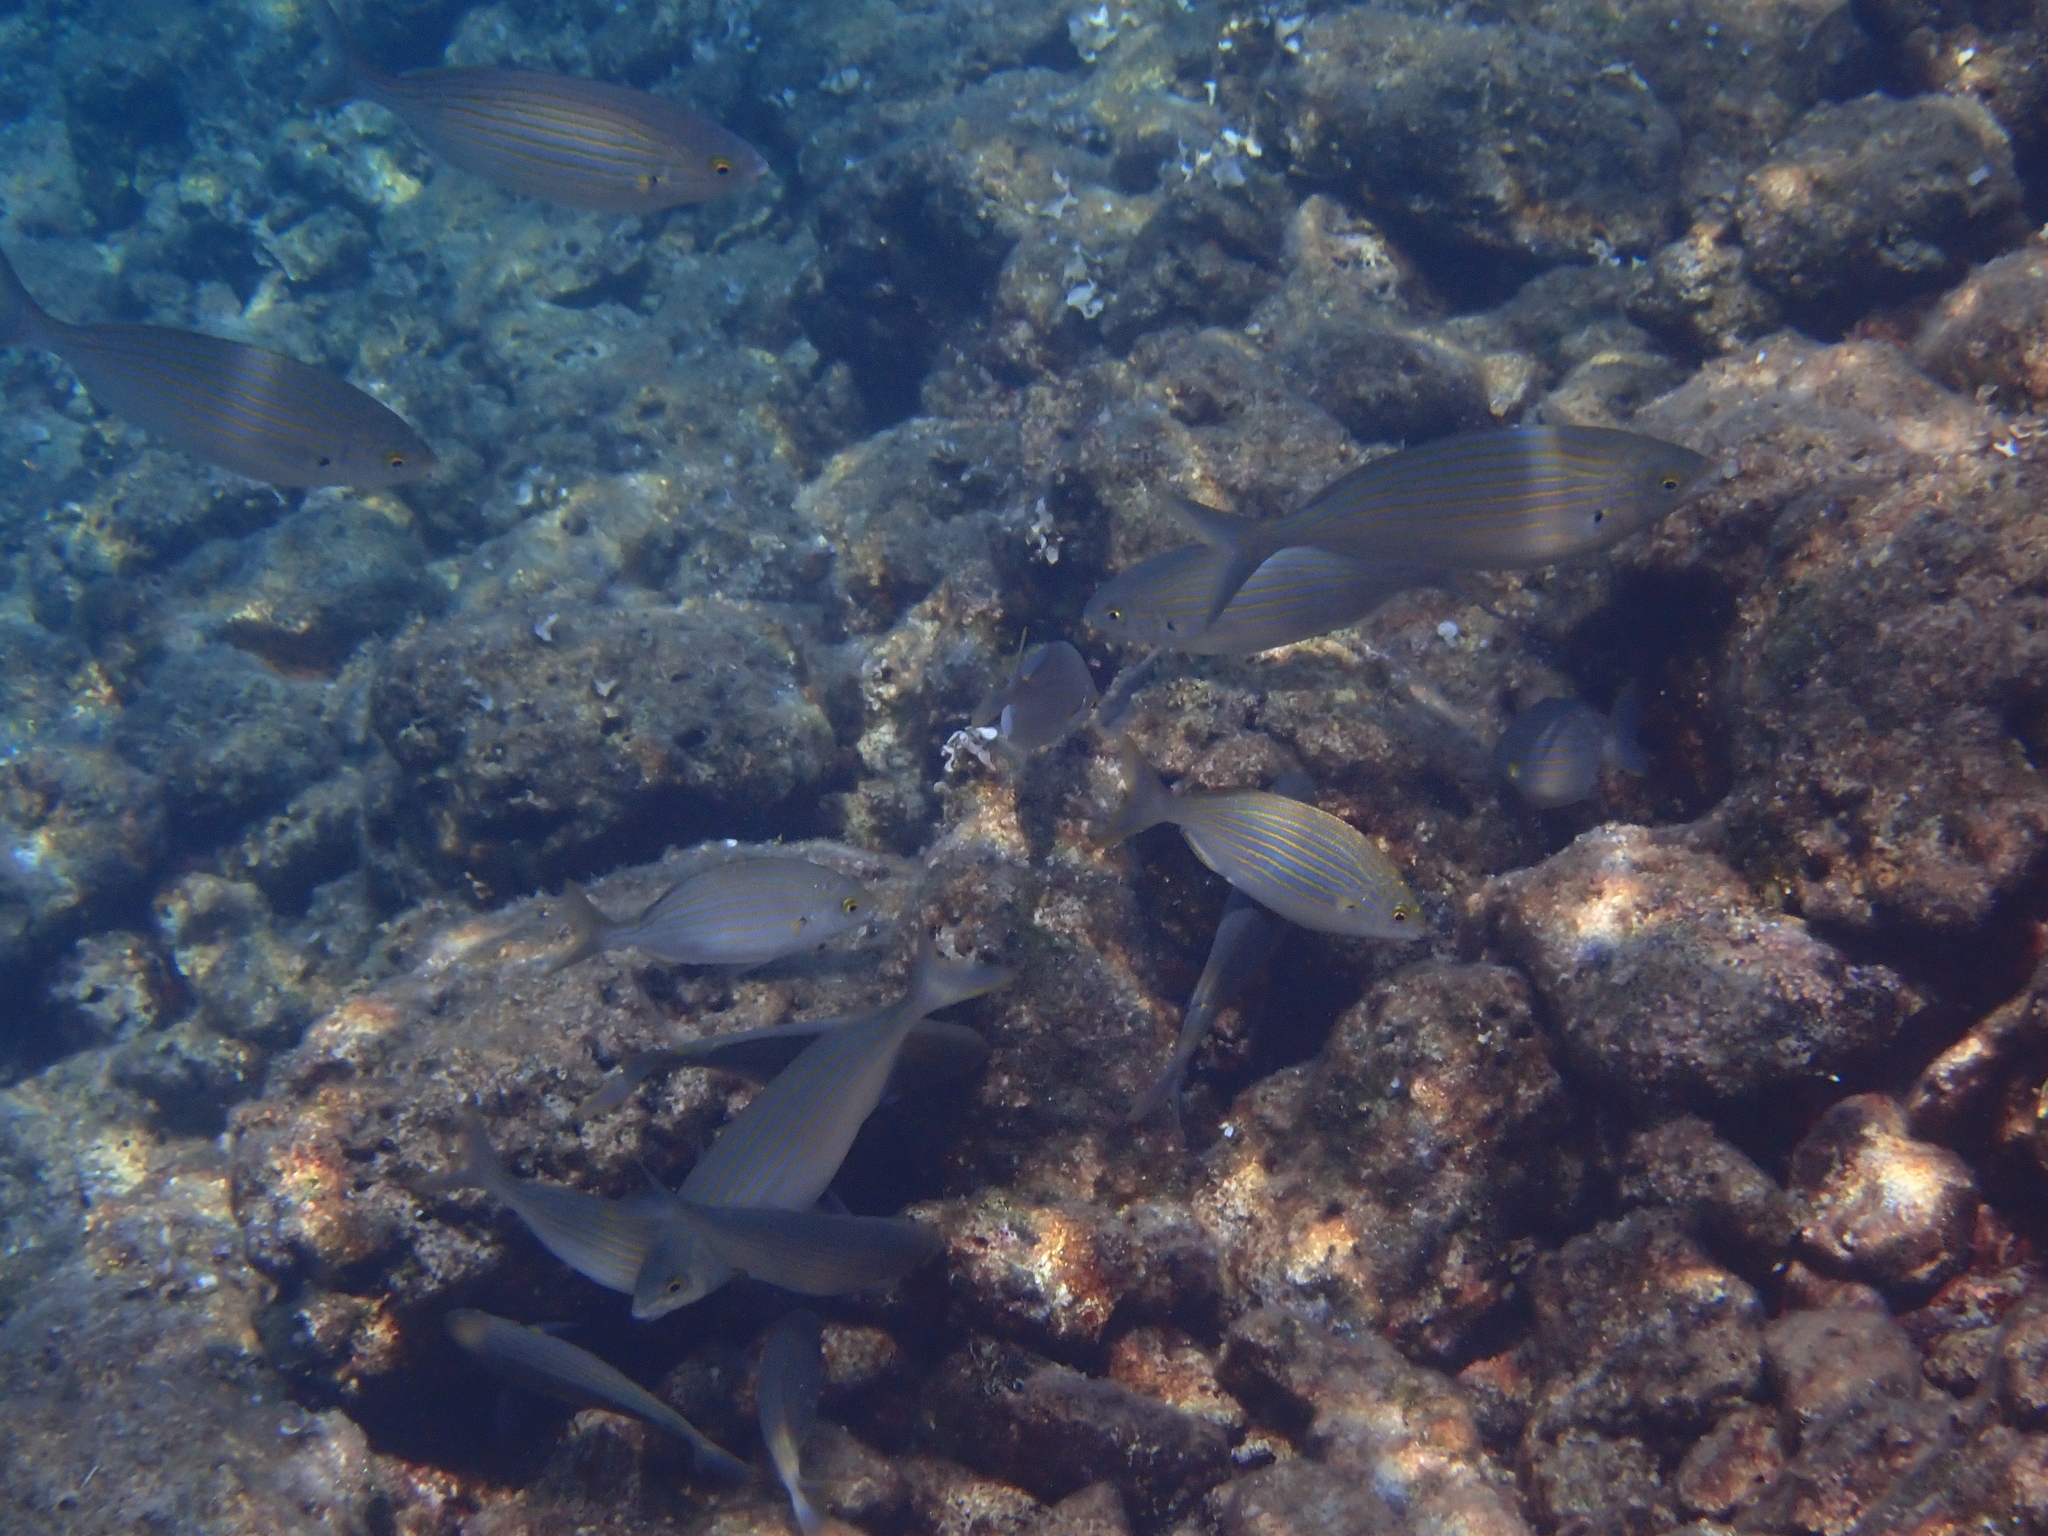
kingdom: Animalia
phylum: Chordata
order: Perciformes
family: Sparidae
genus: Sarpa
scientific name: Sarpa salpa
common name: Salema
